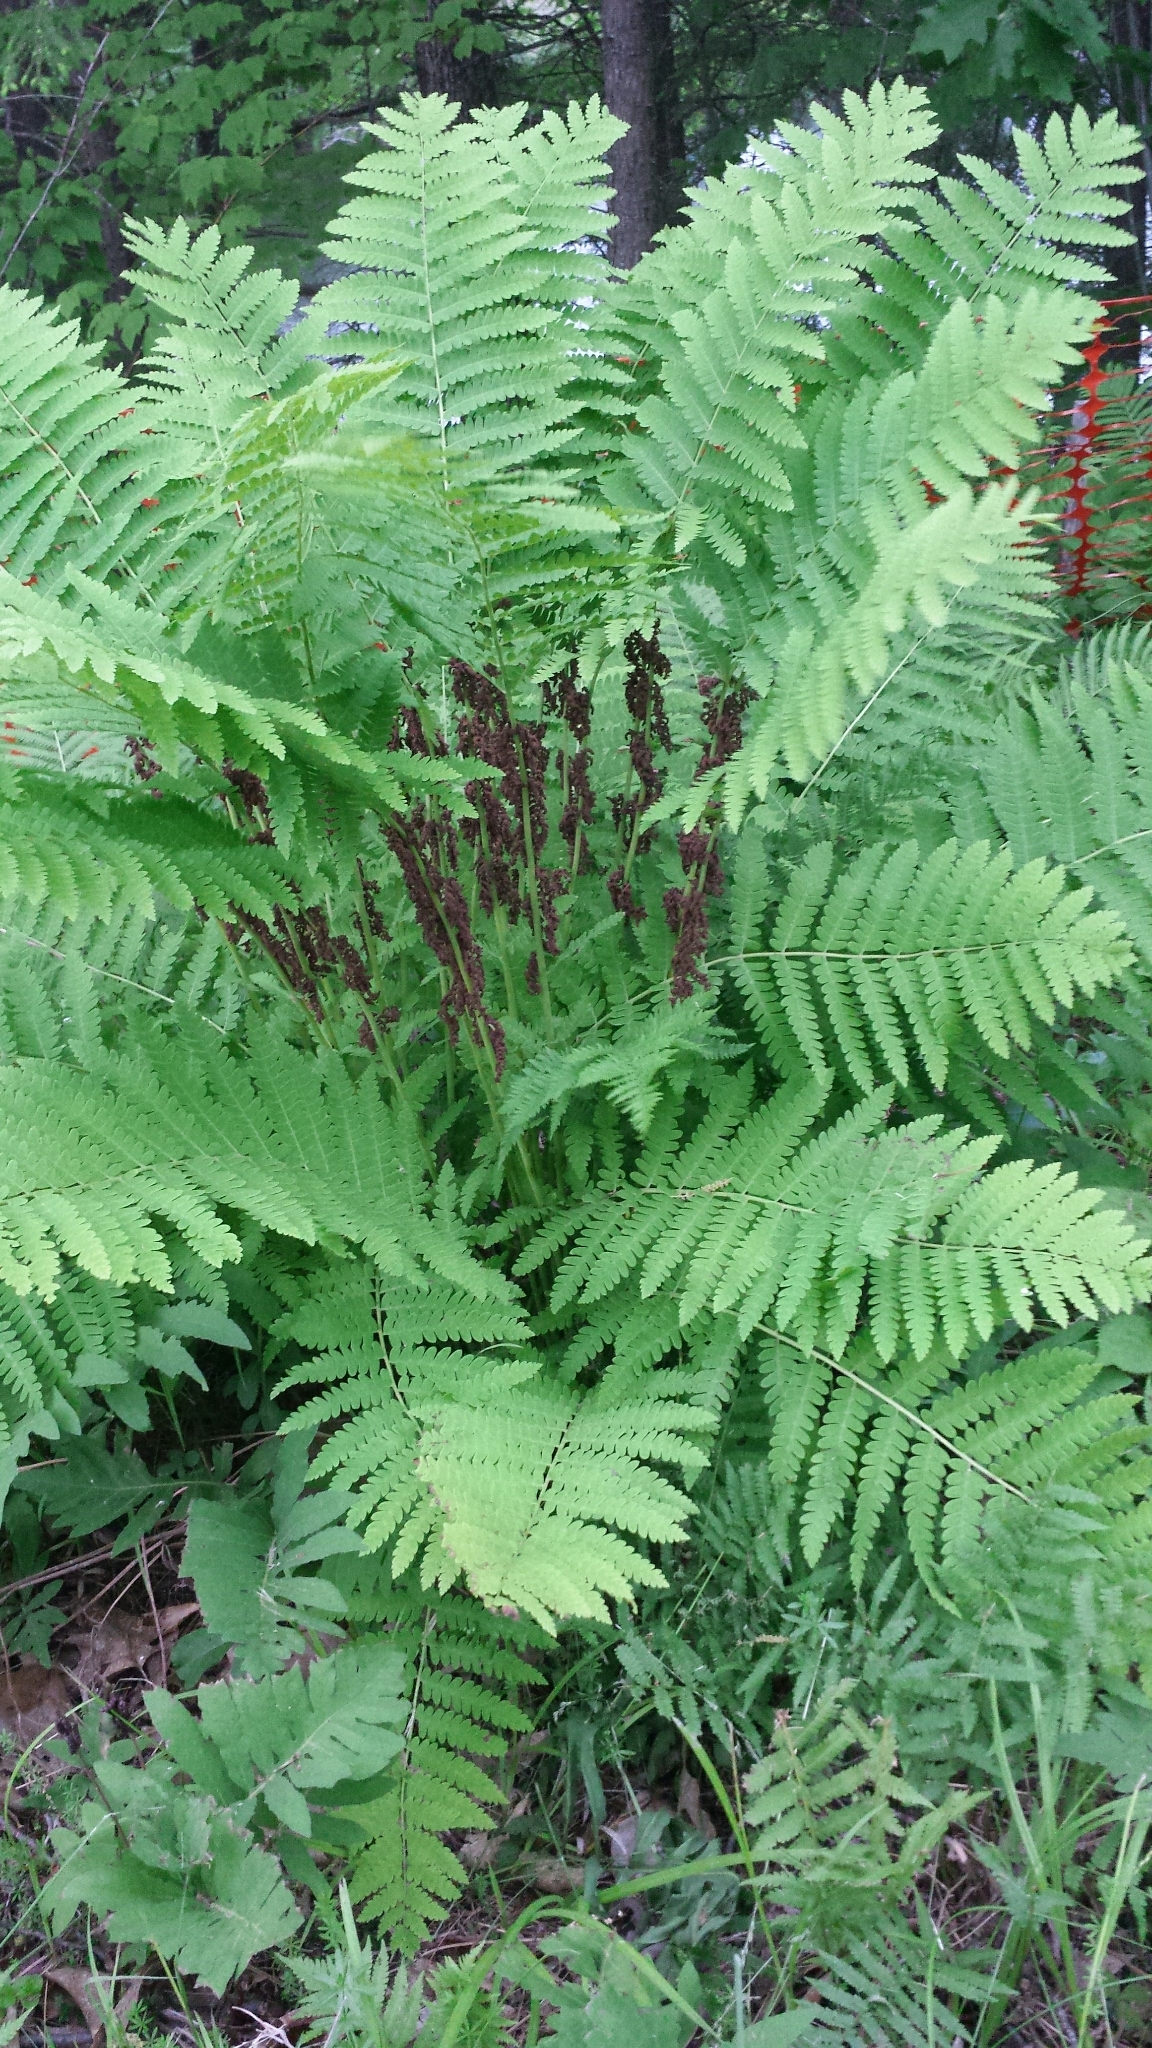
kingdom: Plantae
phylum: Tracheophyta
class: Polypodiopsida
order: Osmundales
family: Osmundaceae
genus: Claytosmunda
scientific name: Claytosmunda claytoniana
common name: Clayton's fern
